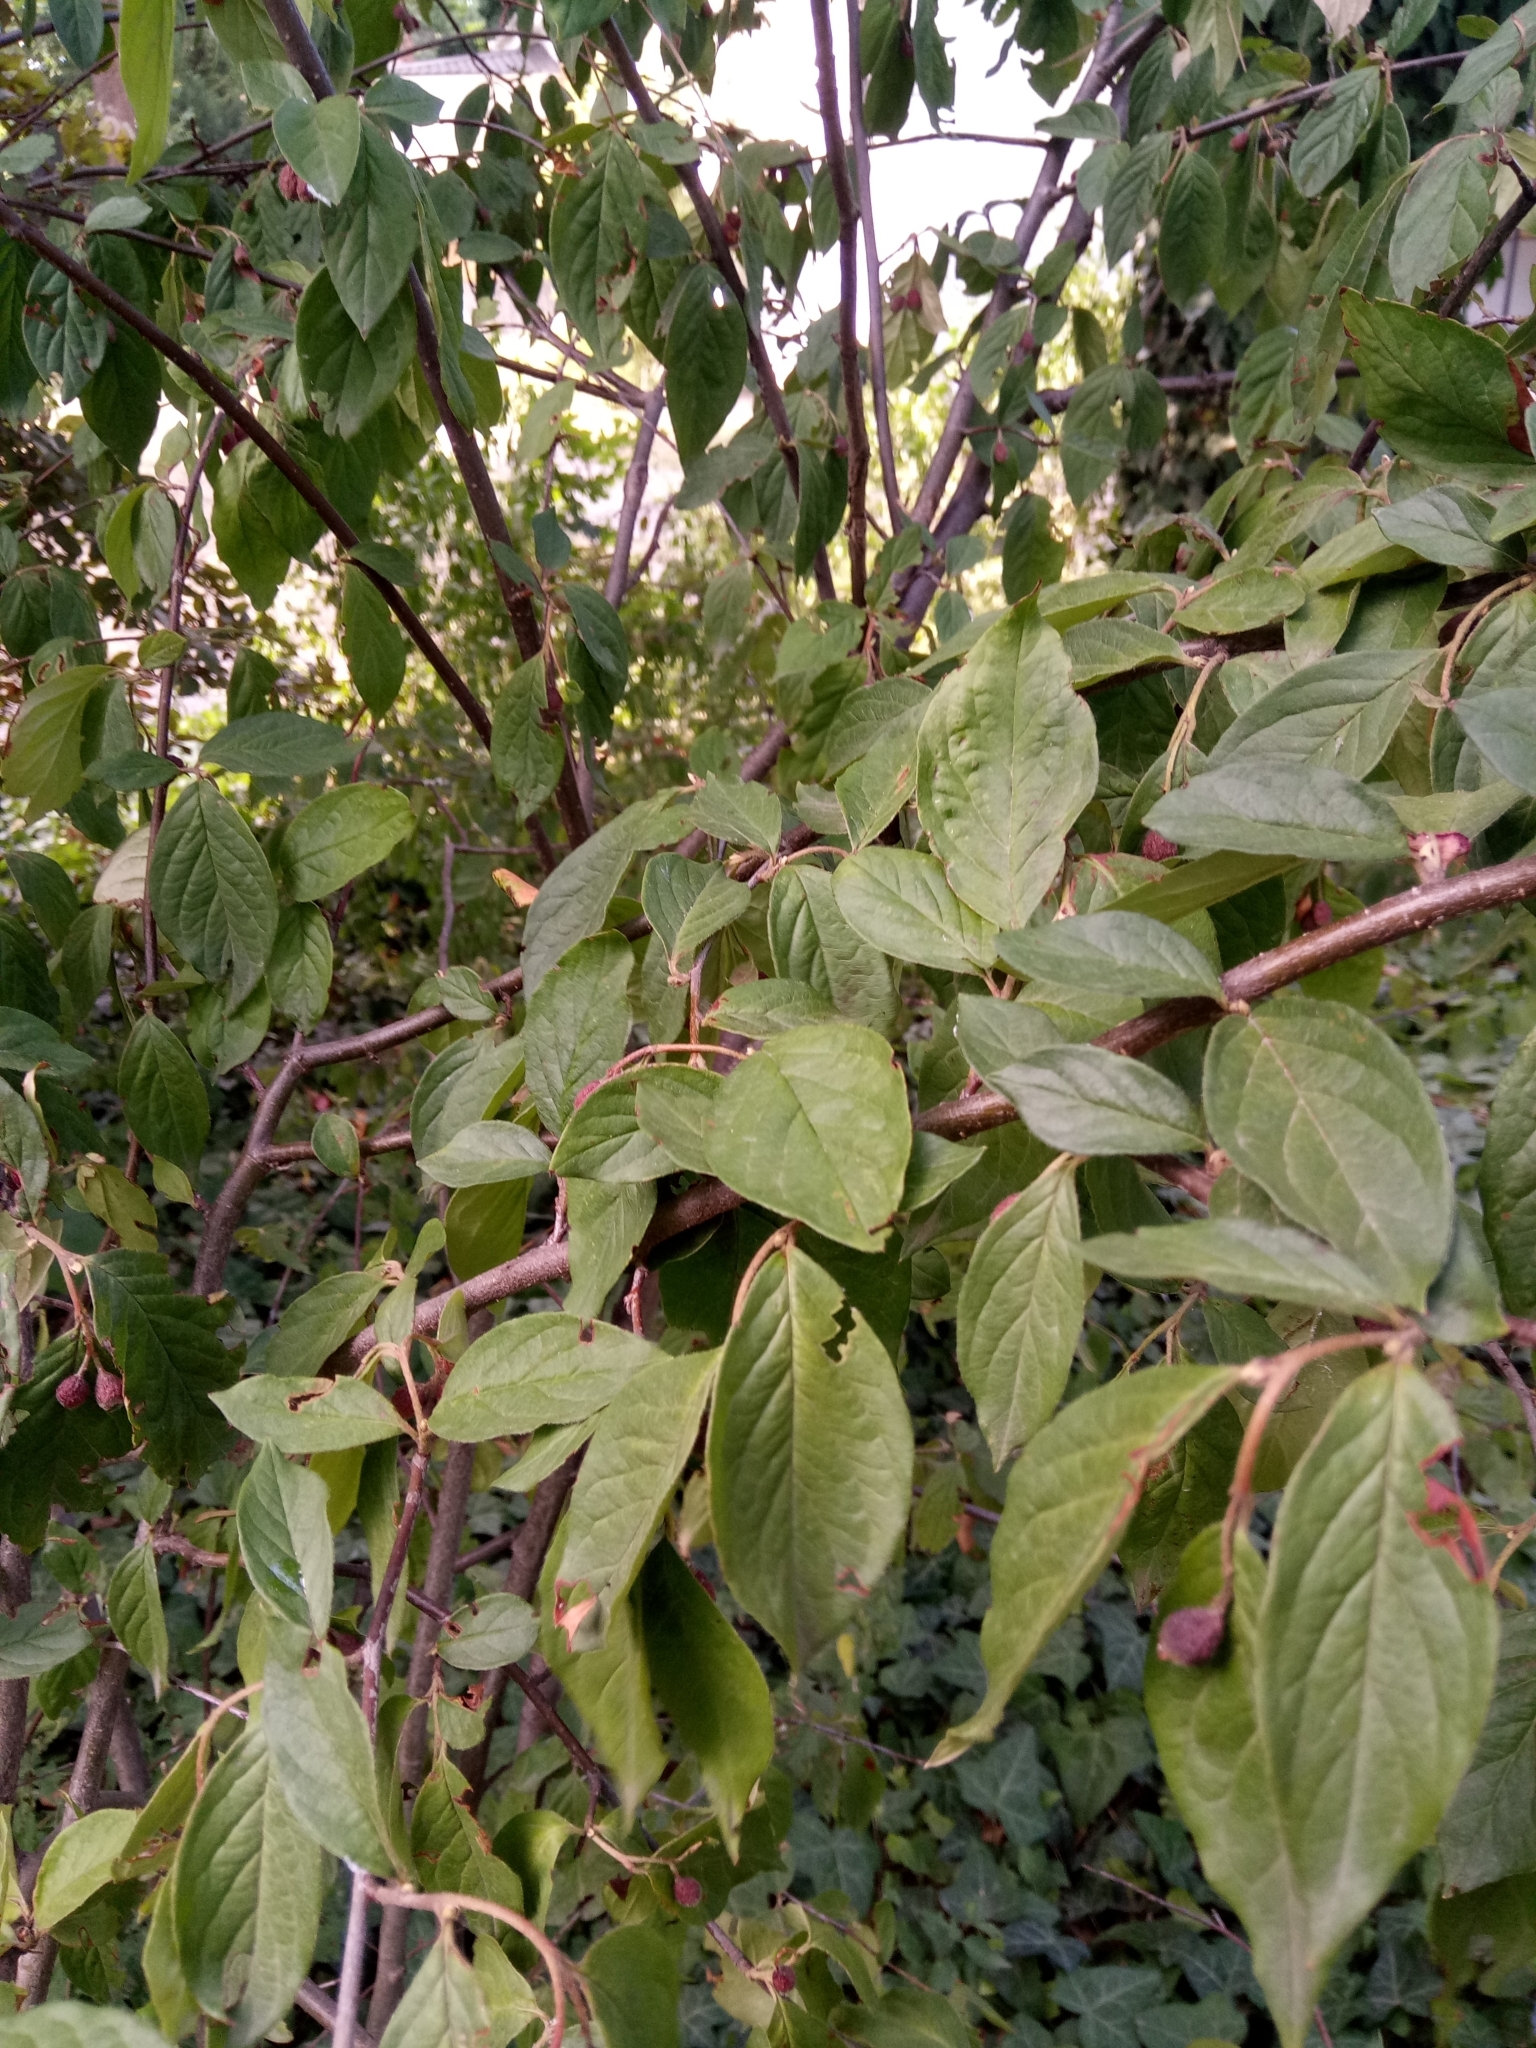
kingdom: Plantae
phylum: Tracheophyta
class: Magnoliopsida
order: Rosales
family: Rosaceae
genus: Cotoneaster
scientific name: Cotoneaster ambiguus
